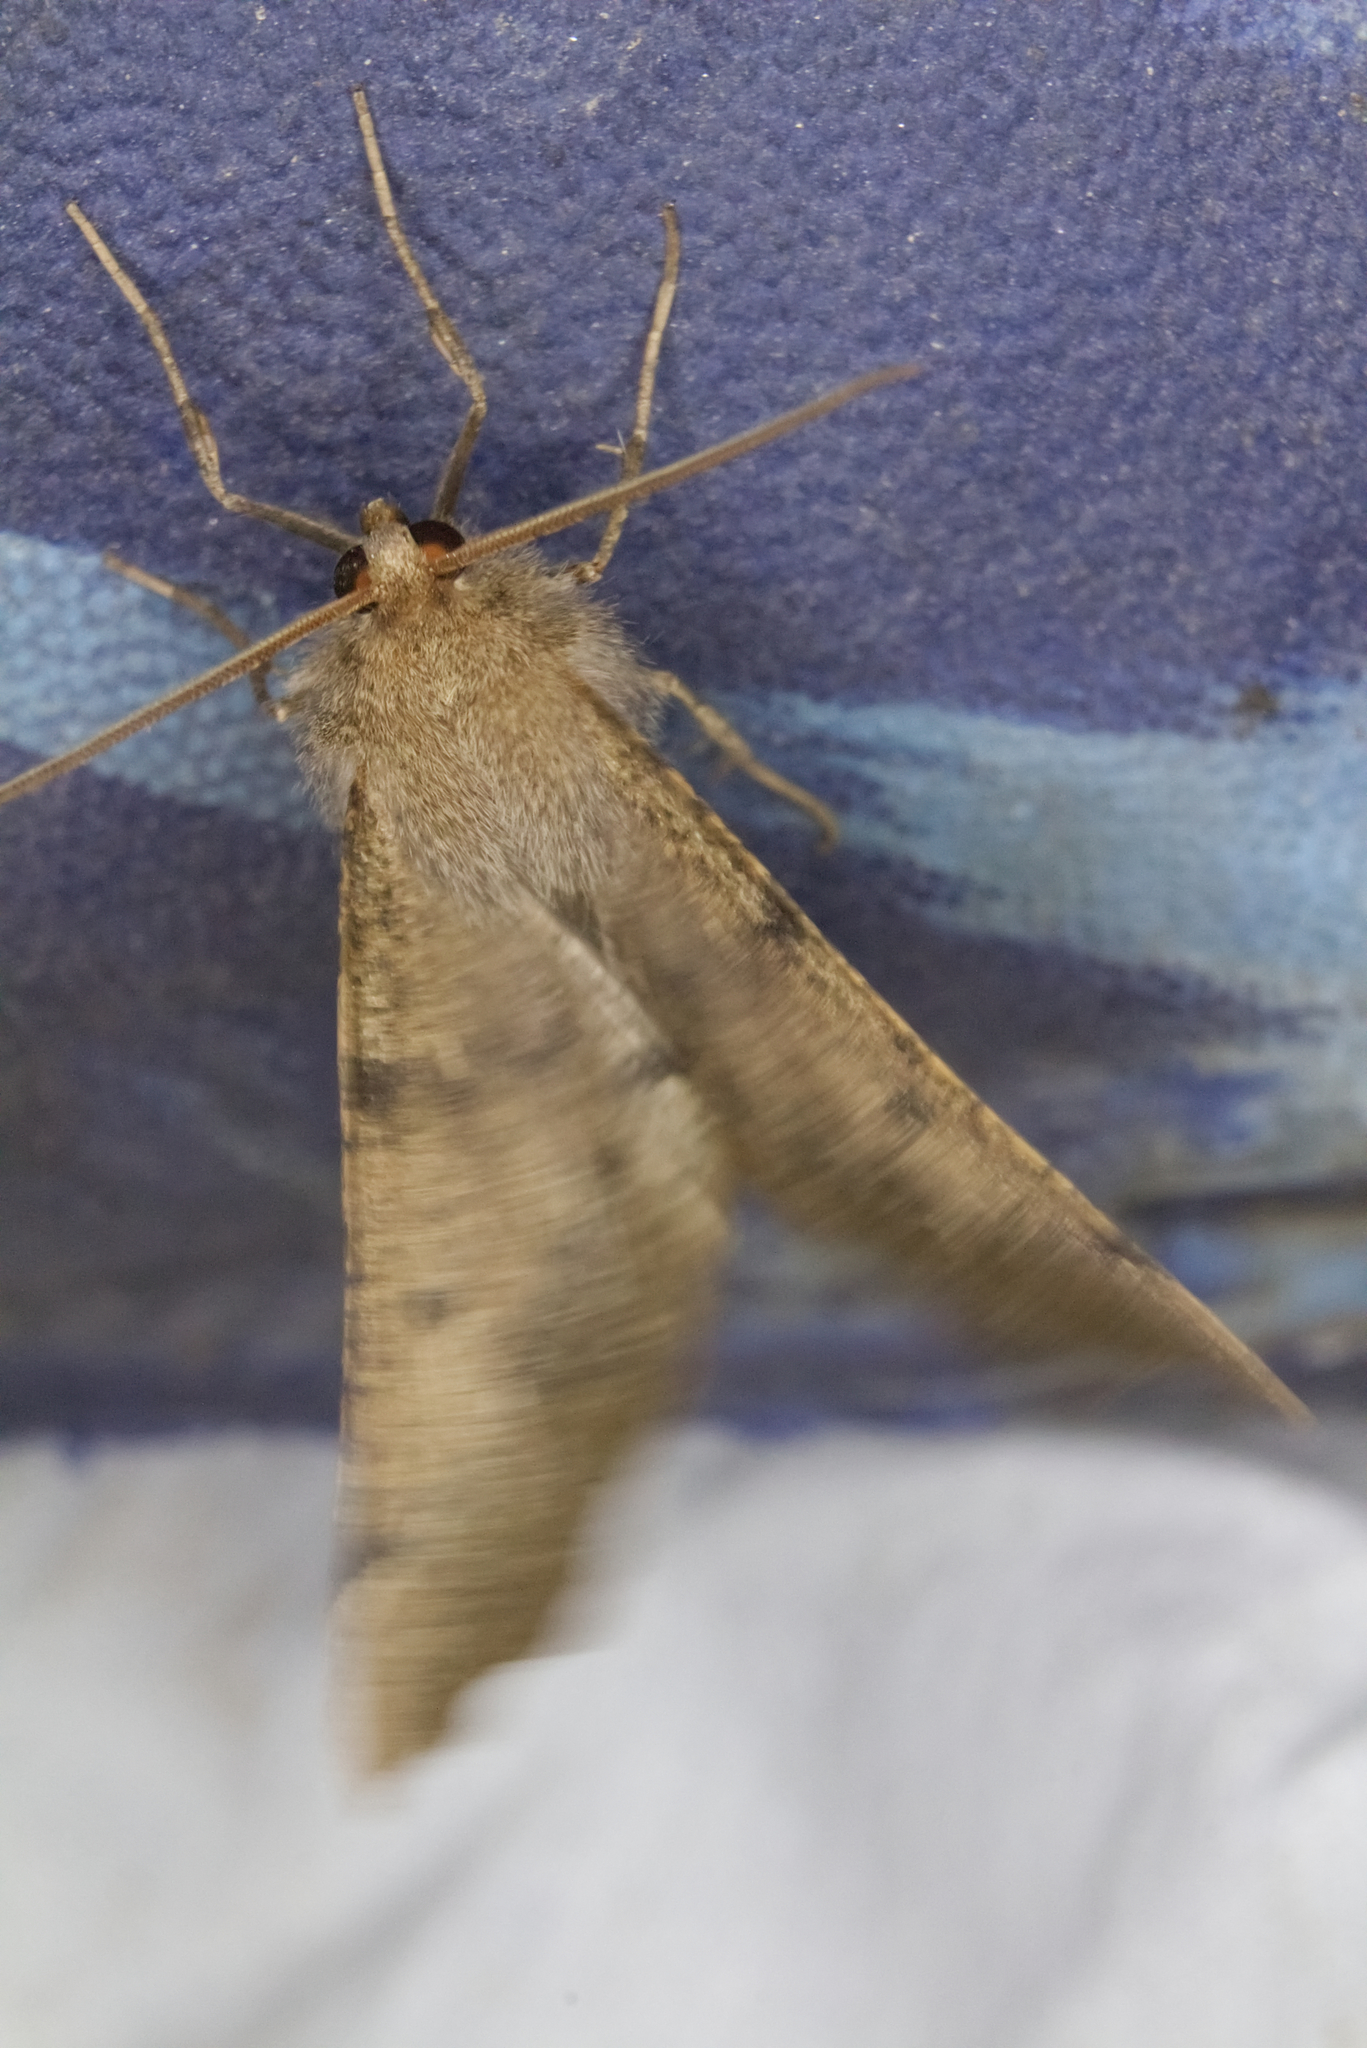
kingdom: Animalia
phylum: Arthropoda
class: Insecta
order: Lepidoptera
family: Geometridae
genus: Odontopera
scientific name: Odontopera bidentata
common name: Scalloped hazel
